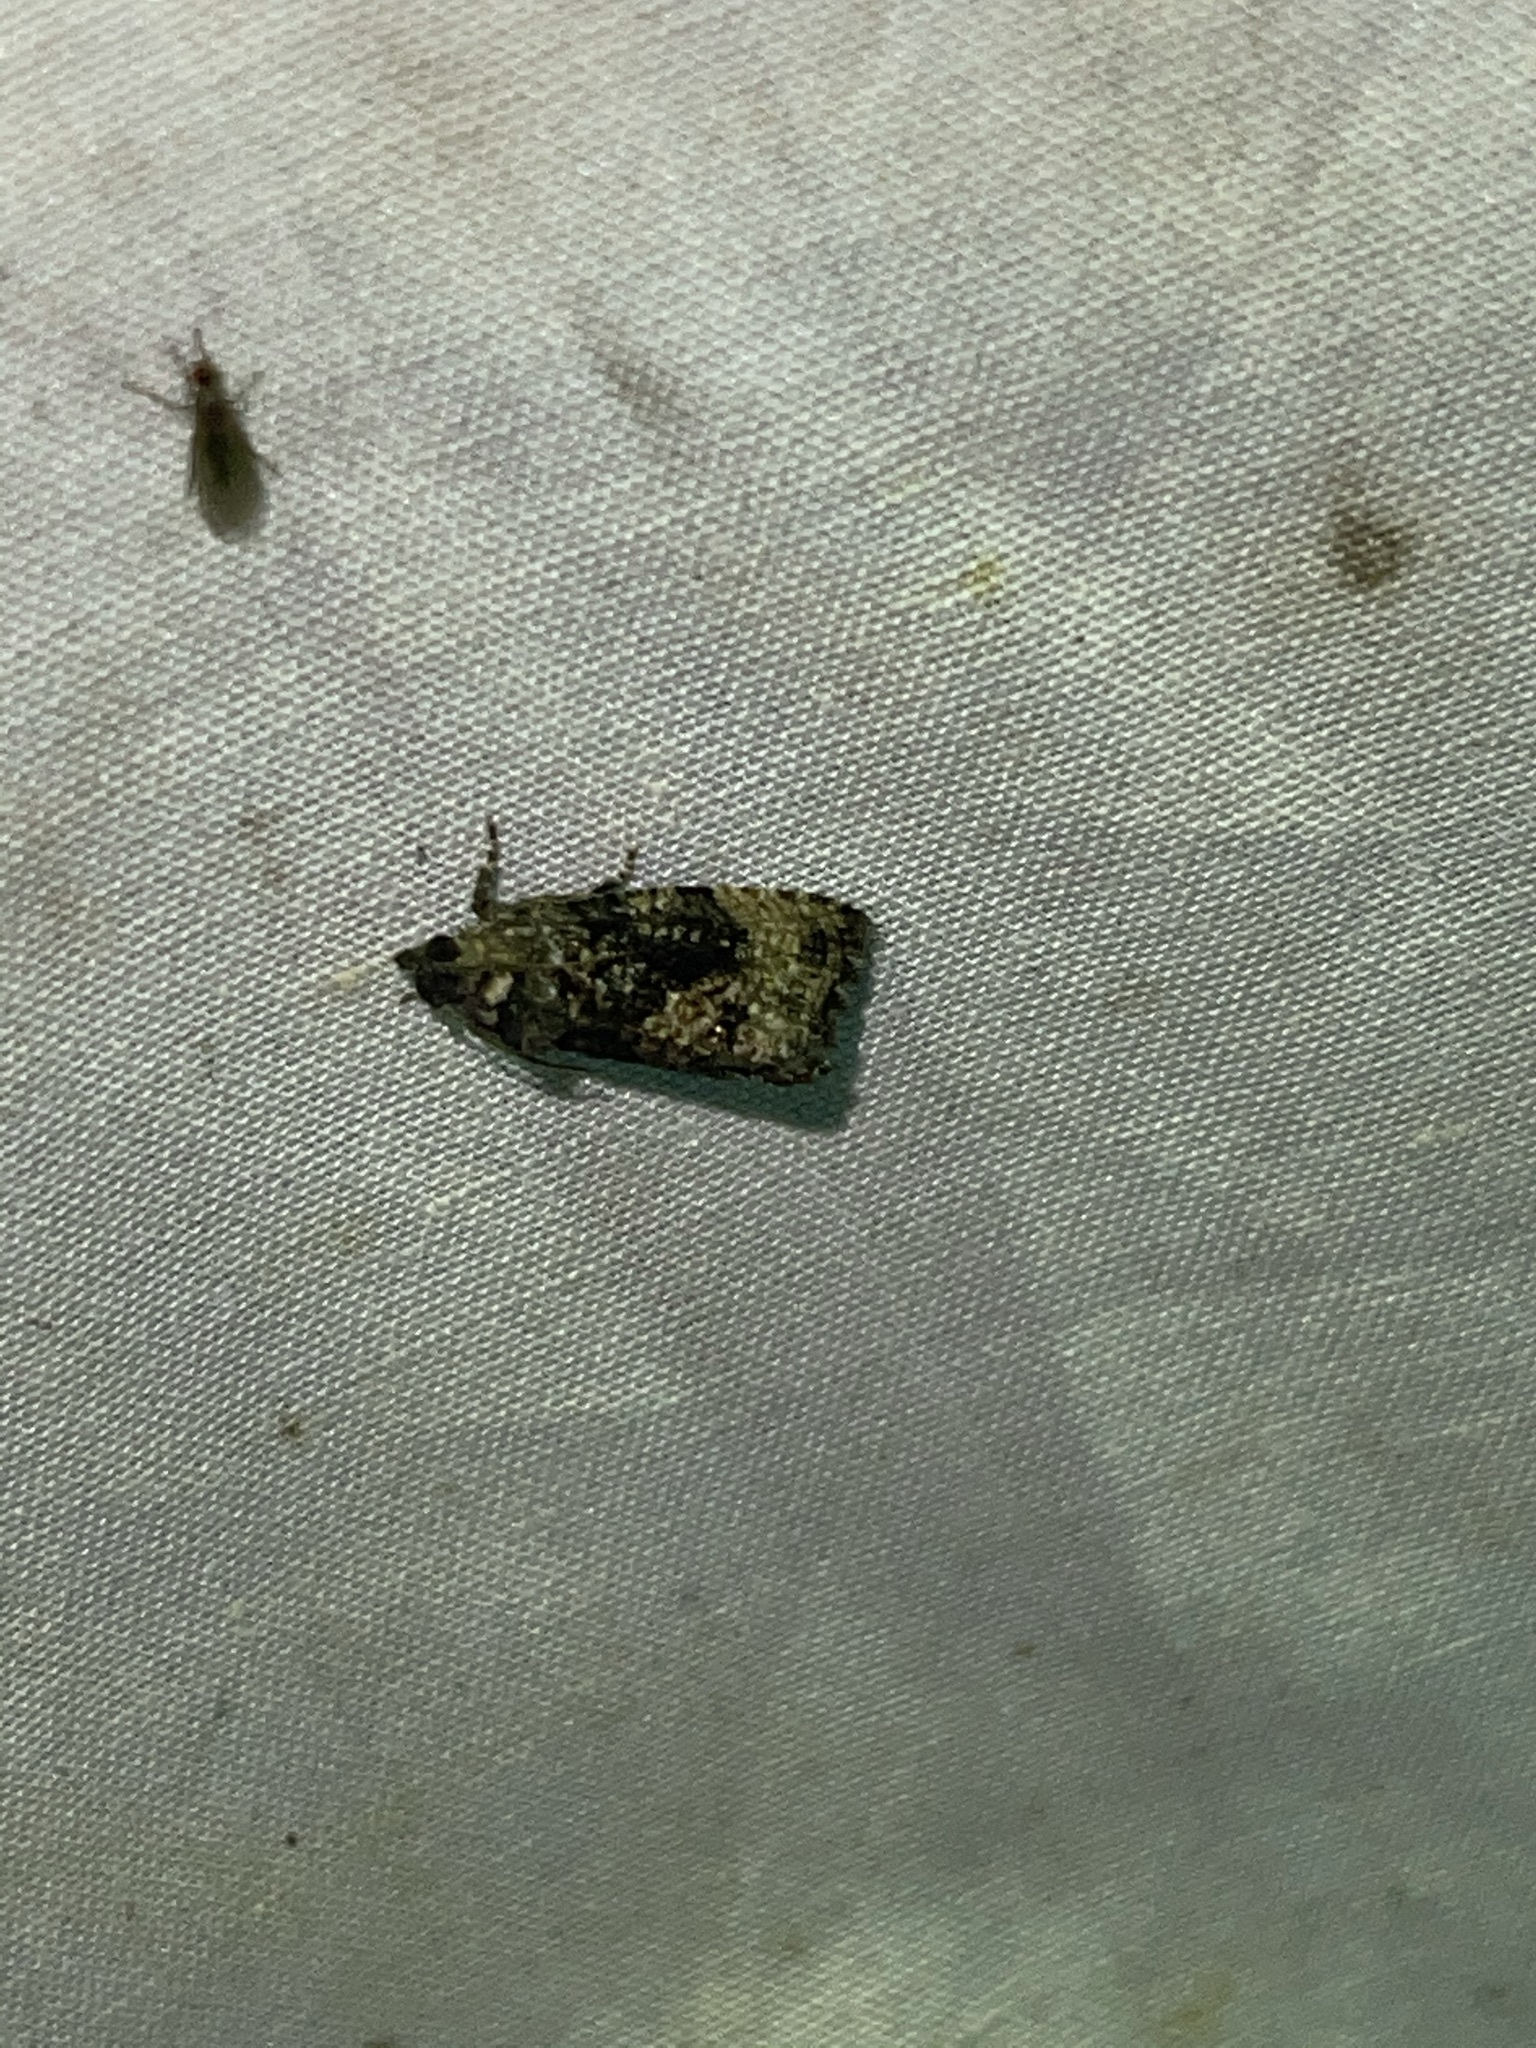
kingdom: Animalia
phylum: Arthropoda
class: Insecta
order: Lepidoptera
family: Tortricidae
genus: Gymnandrosoma
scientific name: Gymnandrosoma punctidiscanum
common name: Dotted ecdytolopha moth
